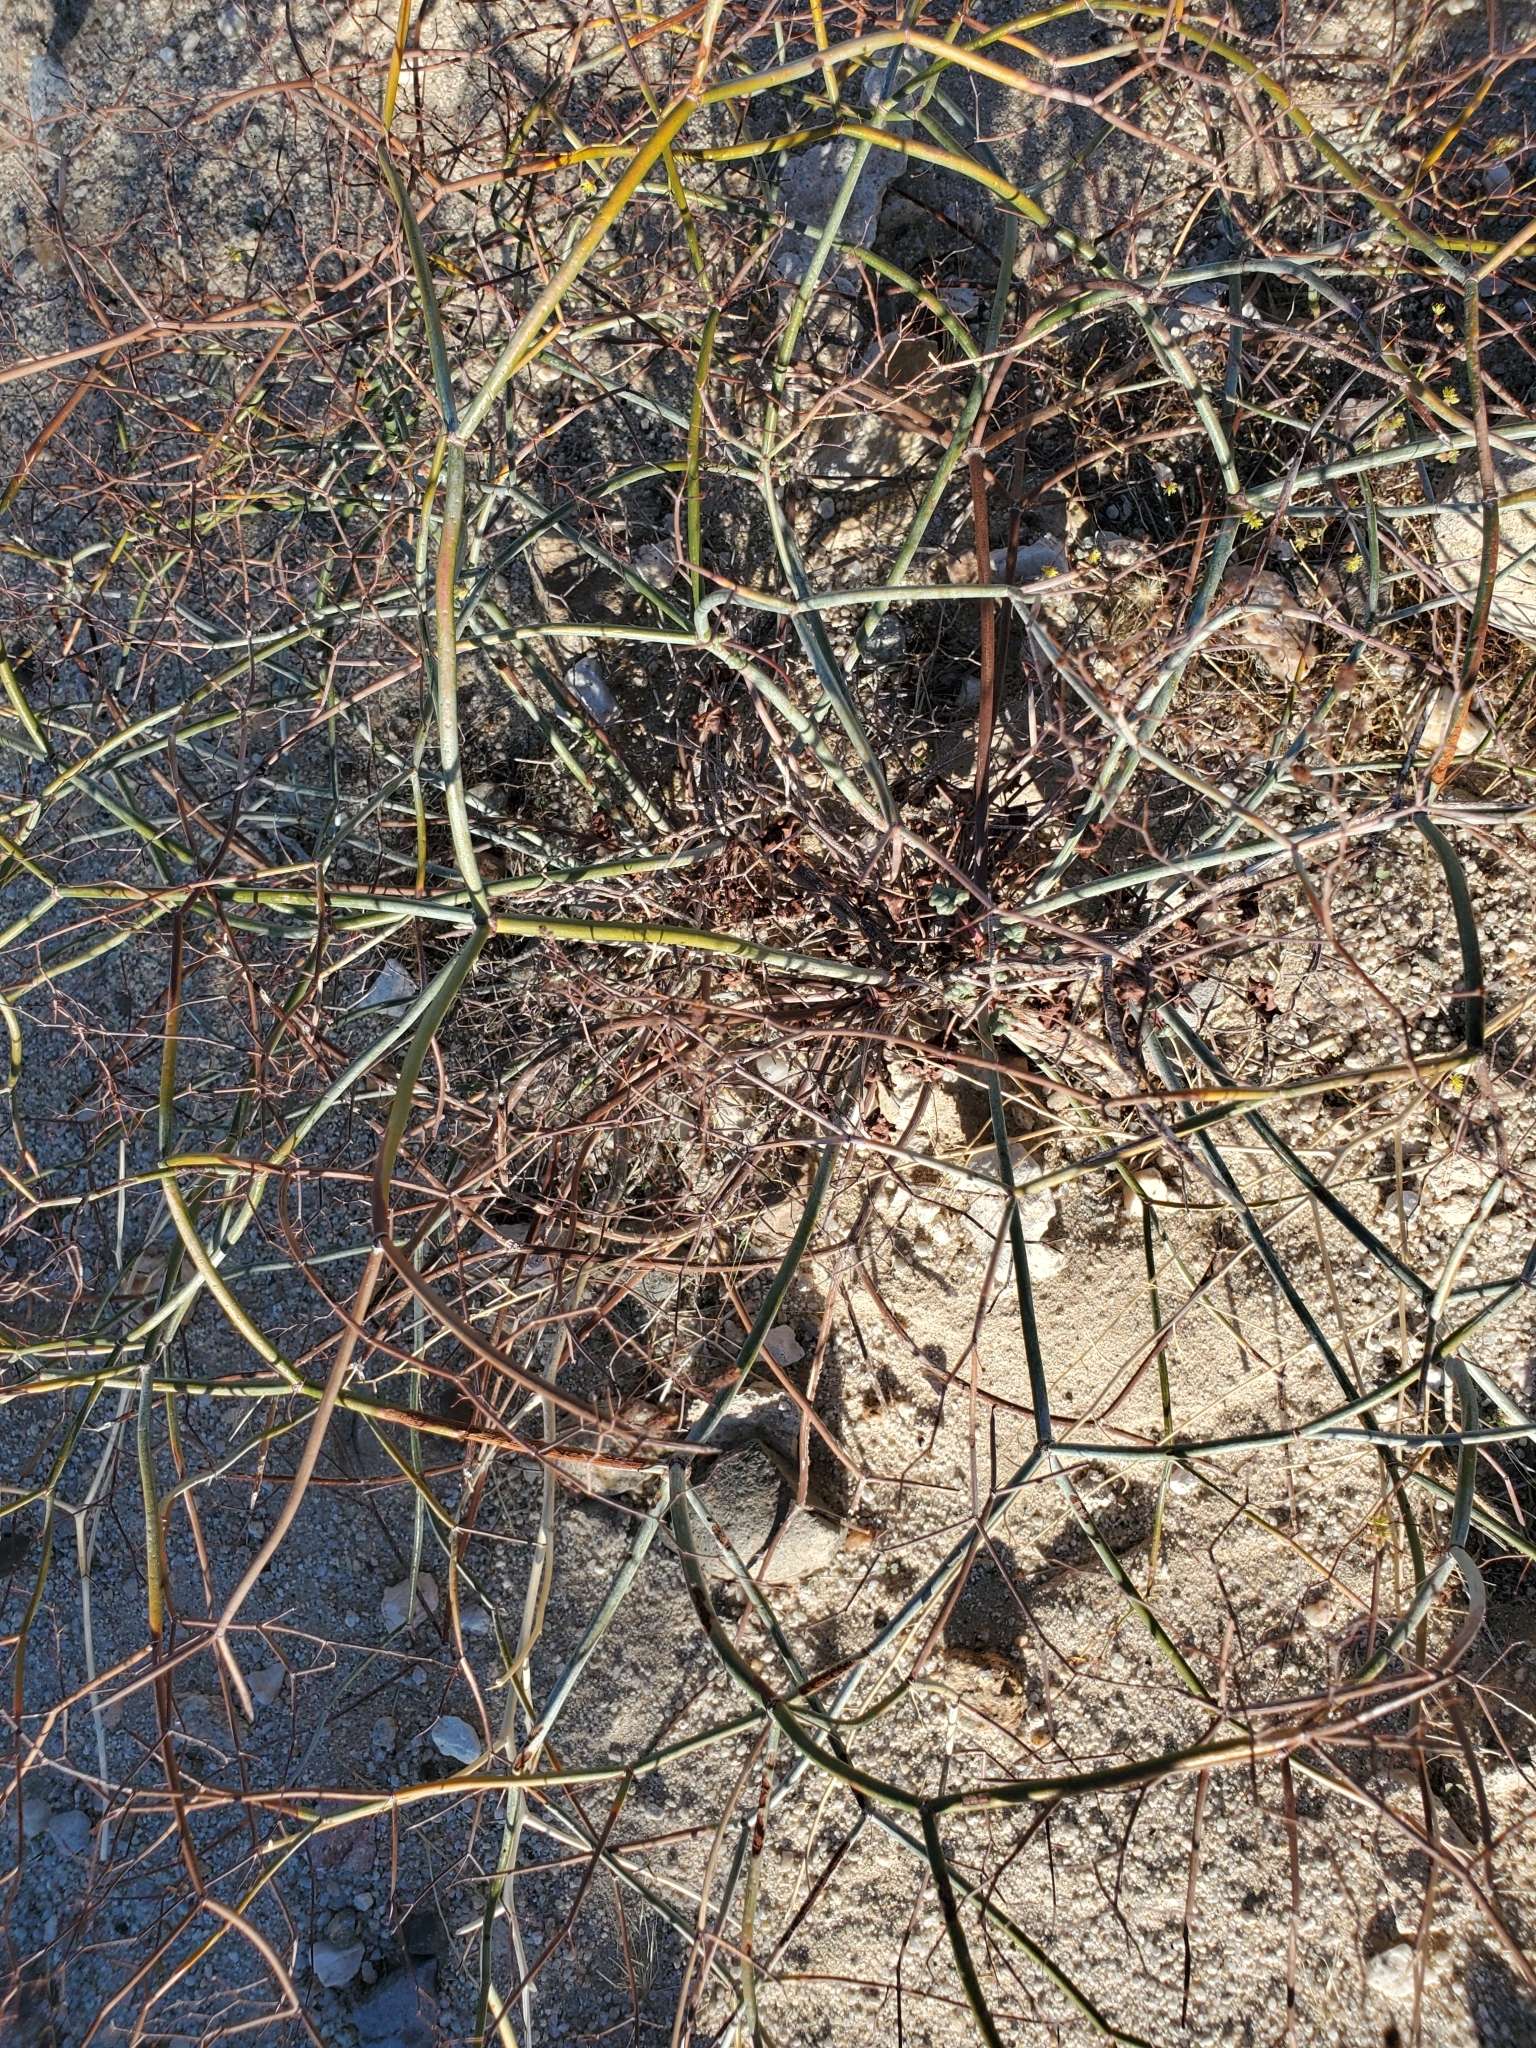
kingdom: Plantae
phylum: Tracheophyta
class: Magnoliopsida
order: Caryophyllales
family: Polygonaceae
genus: Eriogonum
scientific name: Eriogonum inflatum
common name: Desert trumpet
